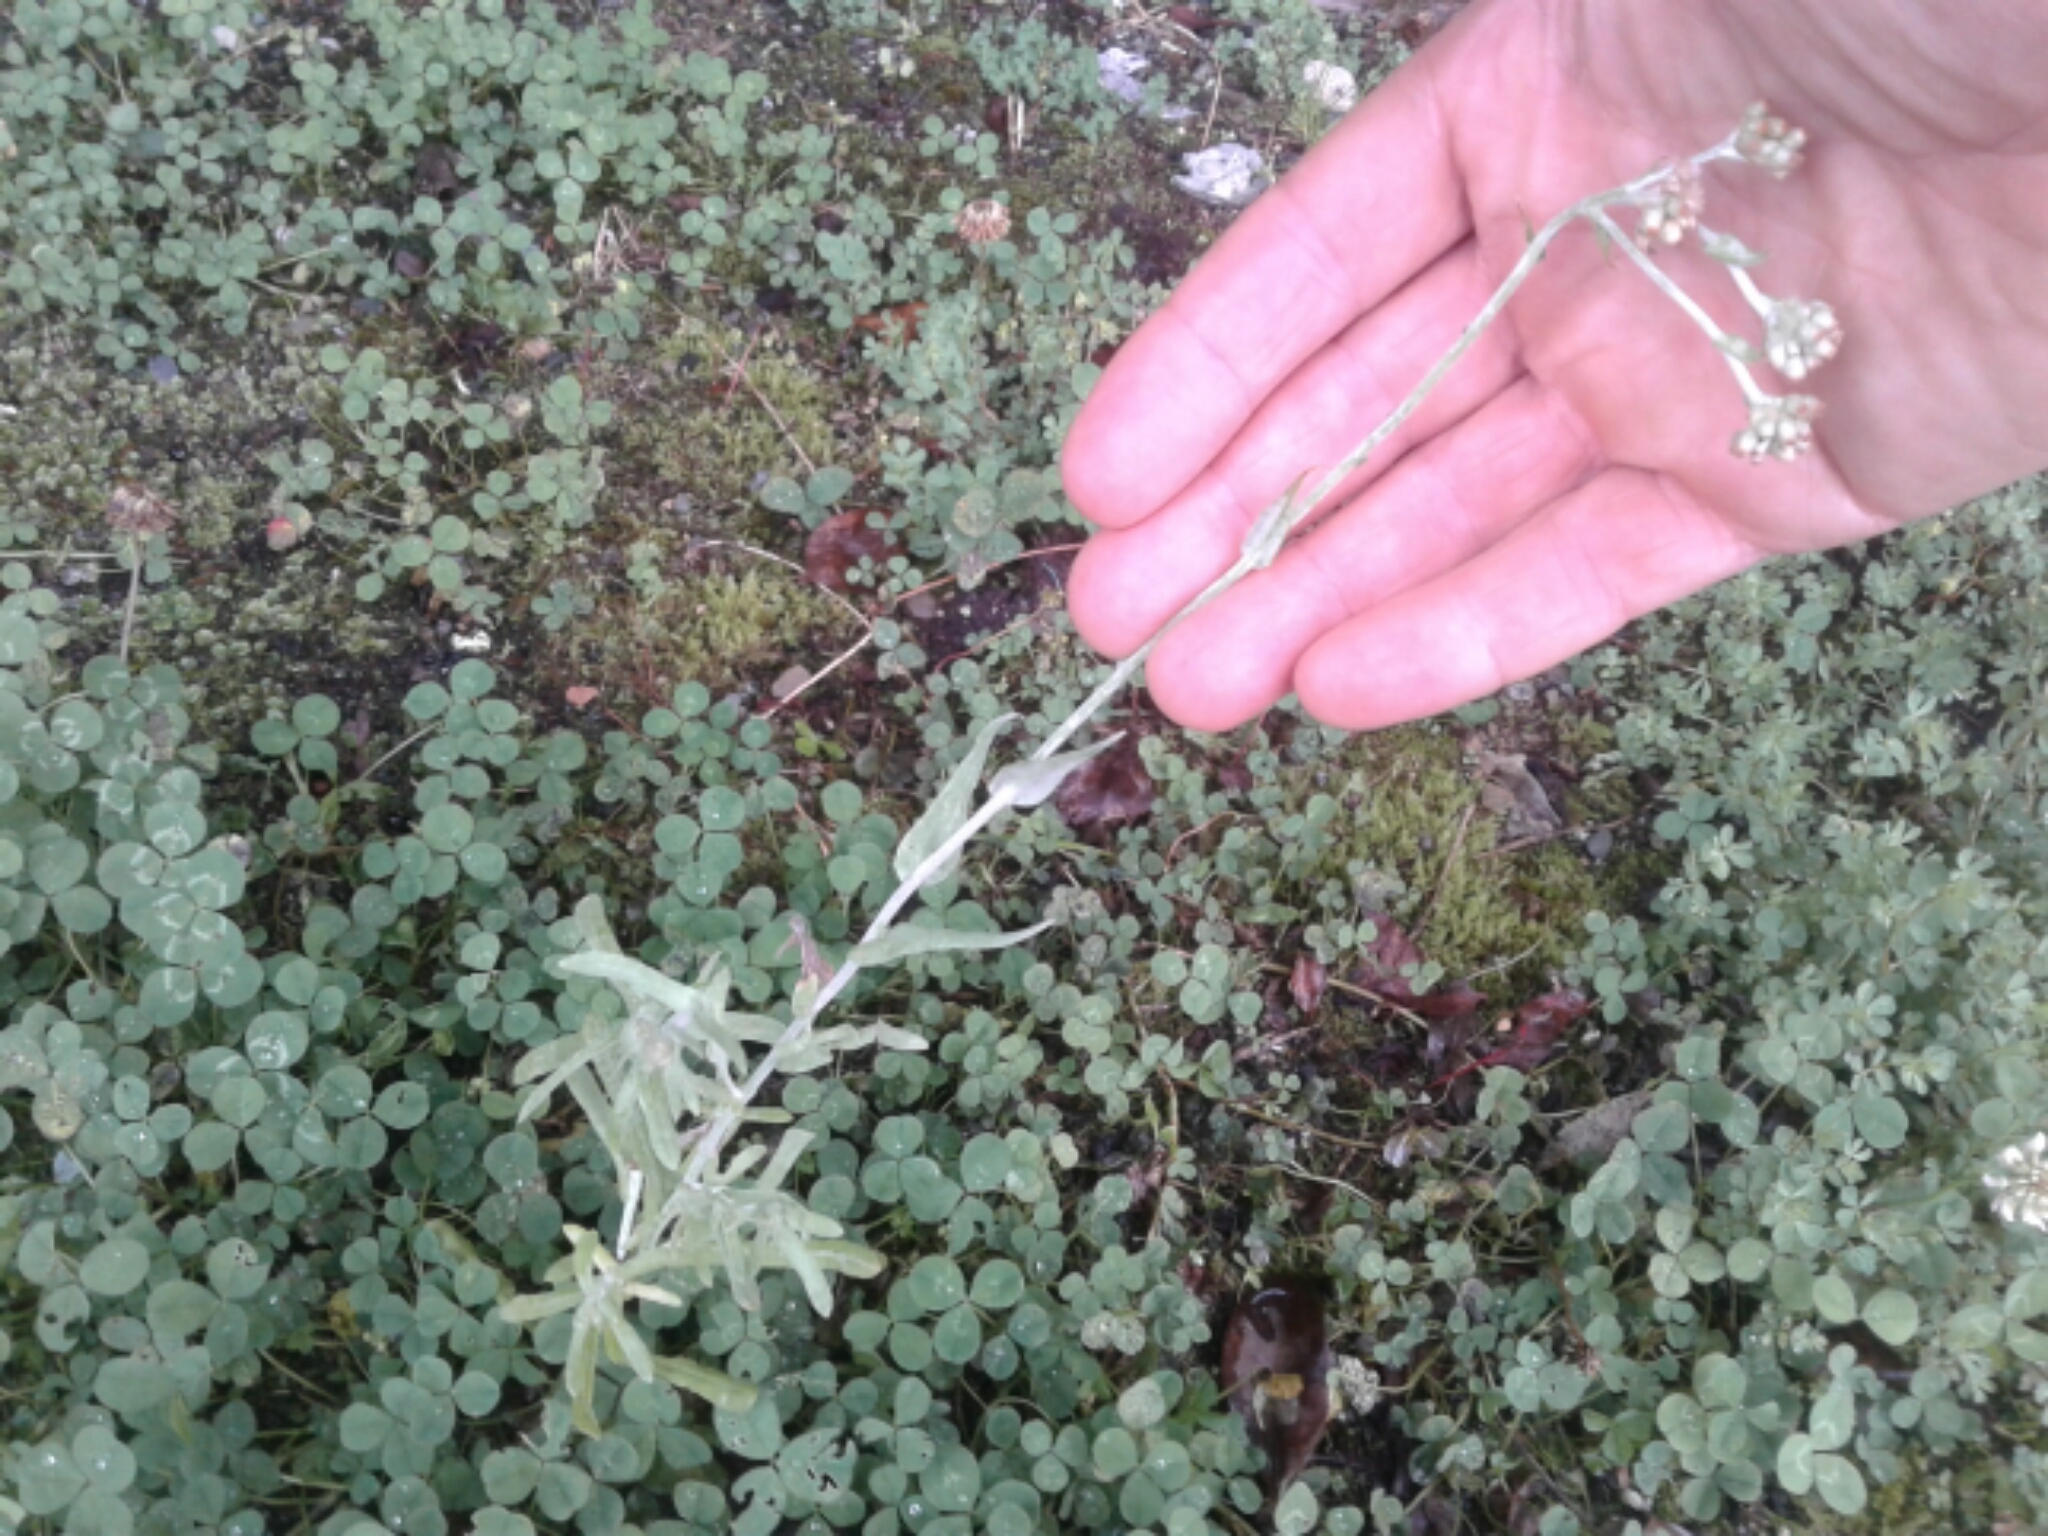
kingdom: Plantae
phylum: Tracheophyta
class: Magnoliopsida
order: Asterales
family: Asteraceae
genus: Helichrysum
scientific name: Helichrysum luteoalbum
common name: Daisy
